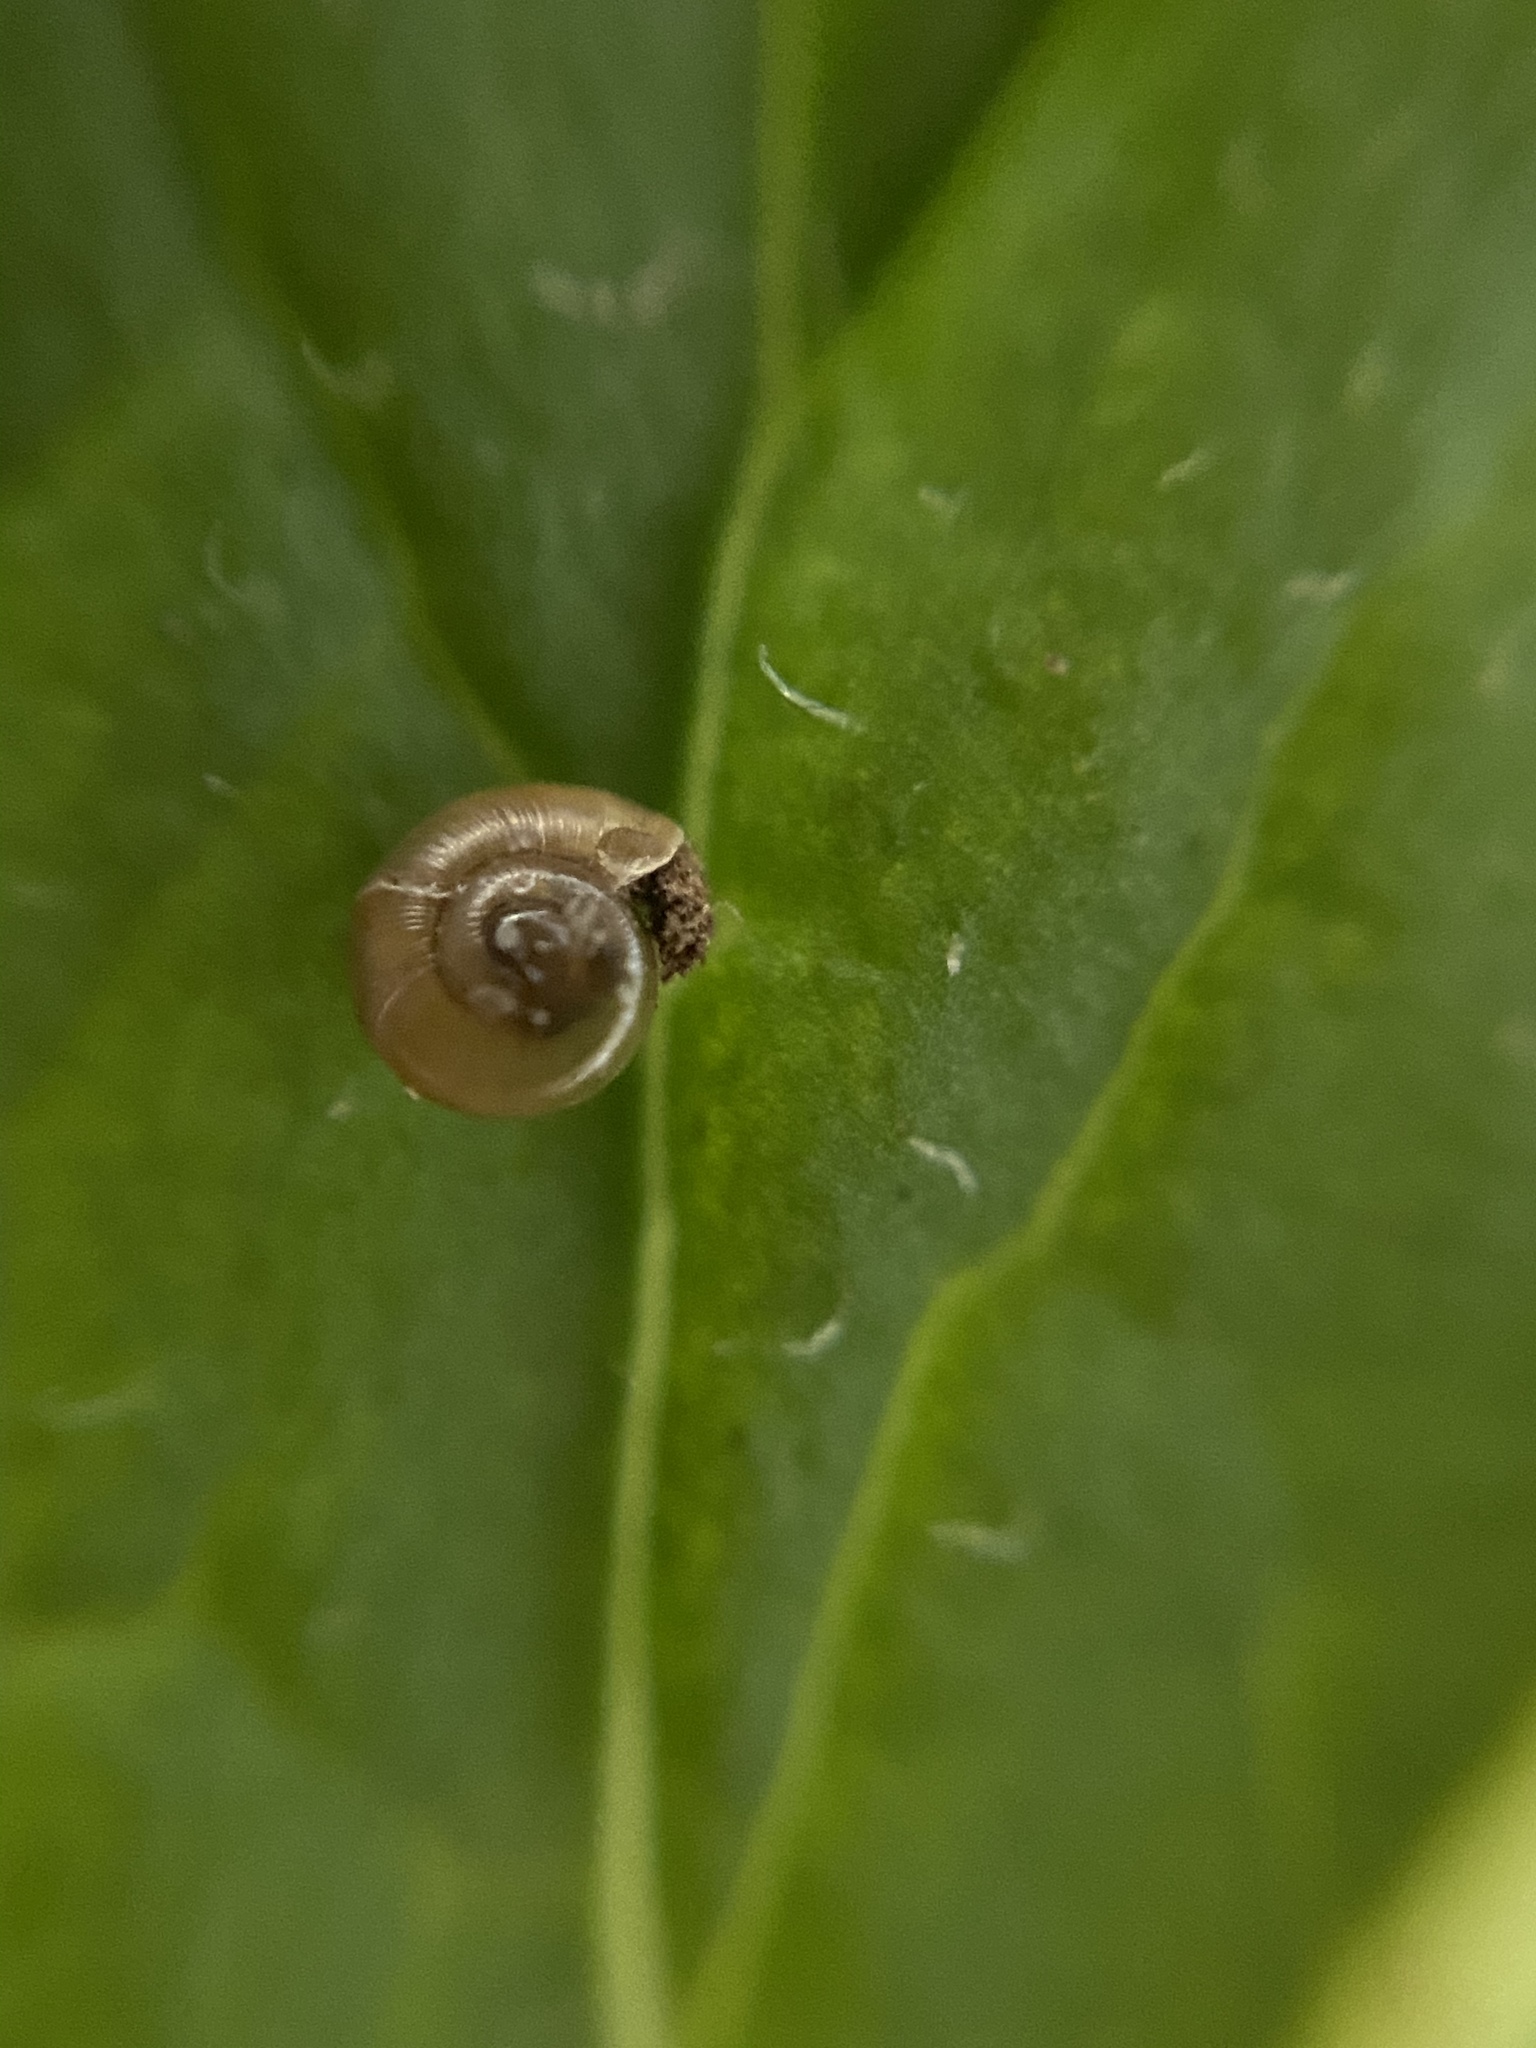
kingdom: Animalia
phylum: Mollusca
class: Gastropoda
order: Stylommatophora
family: Gastrodontidae
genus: Zonitoides
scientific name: Zonitoides arboreus
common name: Quick gloss
